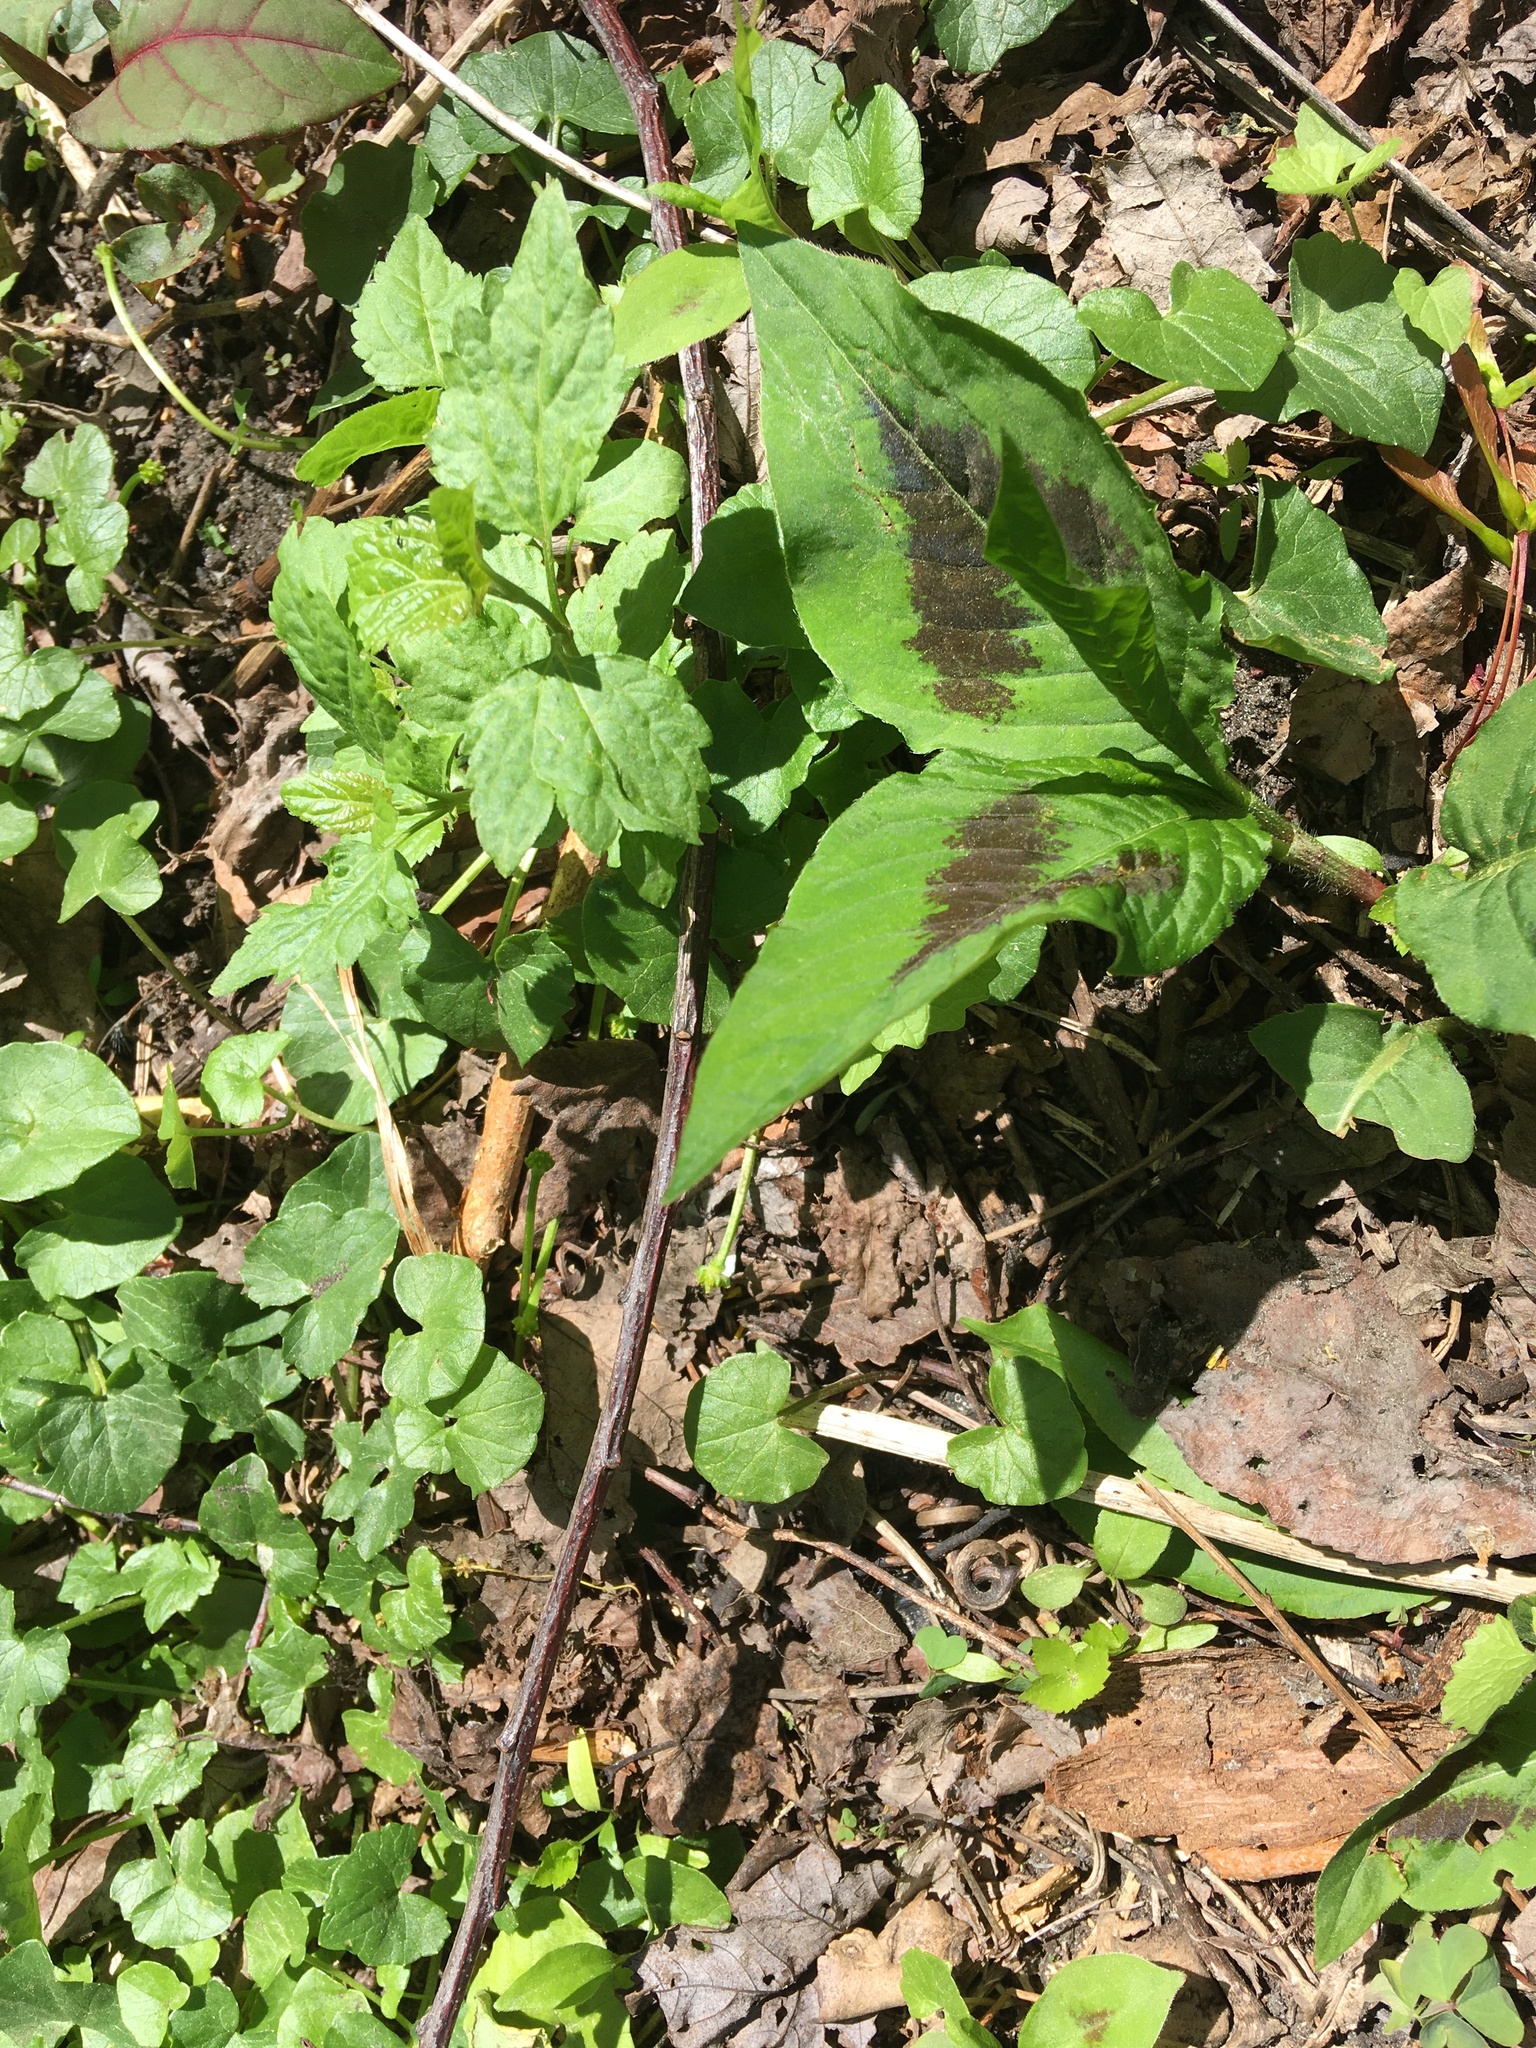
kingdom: Plantae
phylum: Tracheophyta
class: Magnoliopsida
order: Caryophyllales
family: Polygonaceae
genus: Persicaria
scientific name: Persicaria virginiana
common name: Jumpseed
